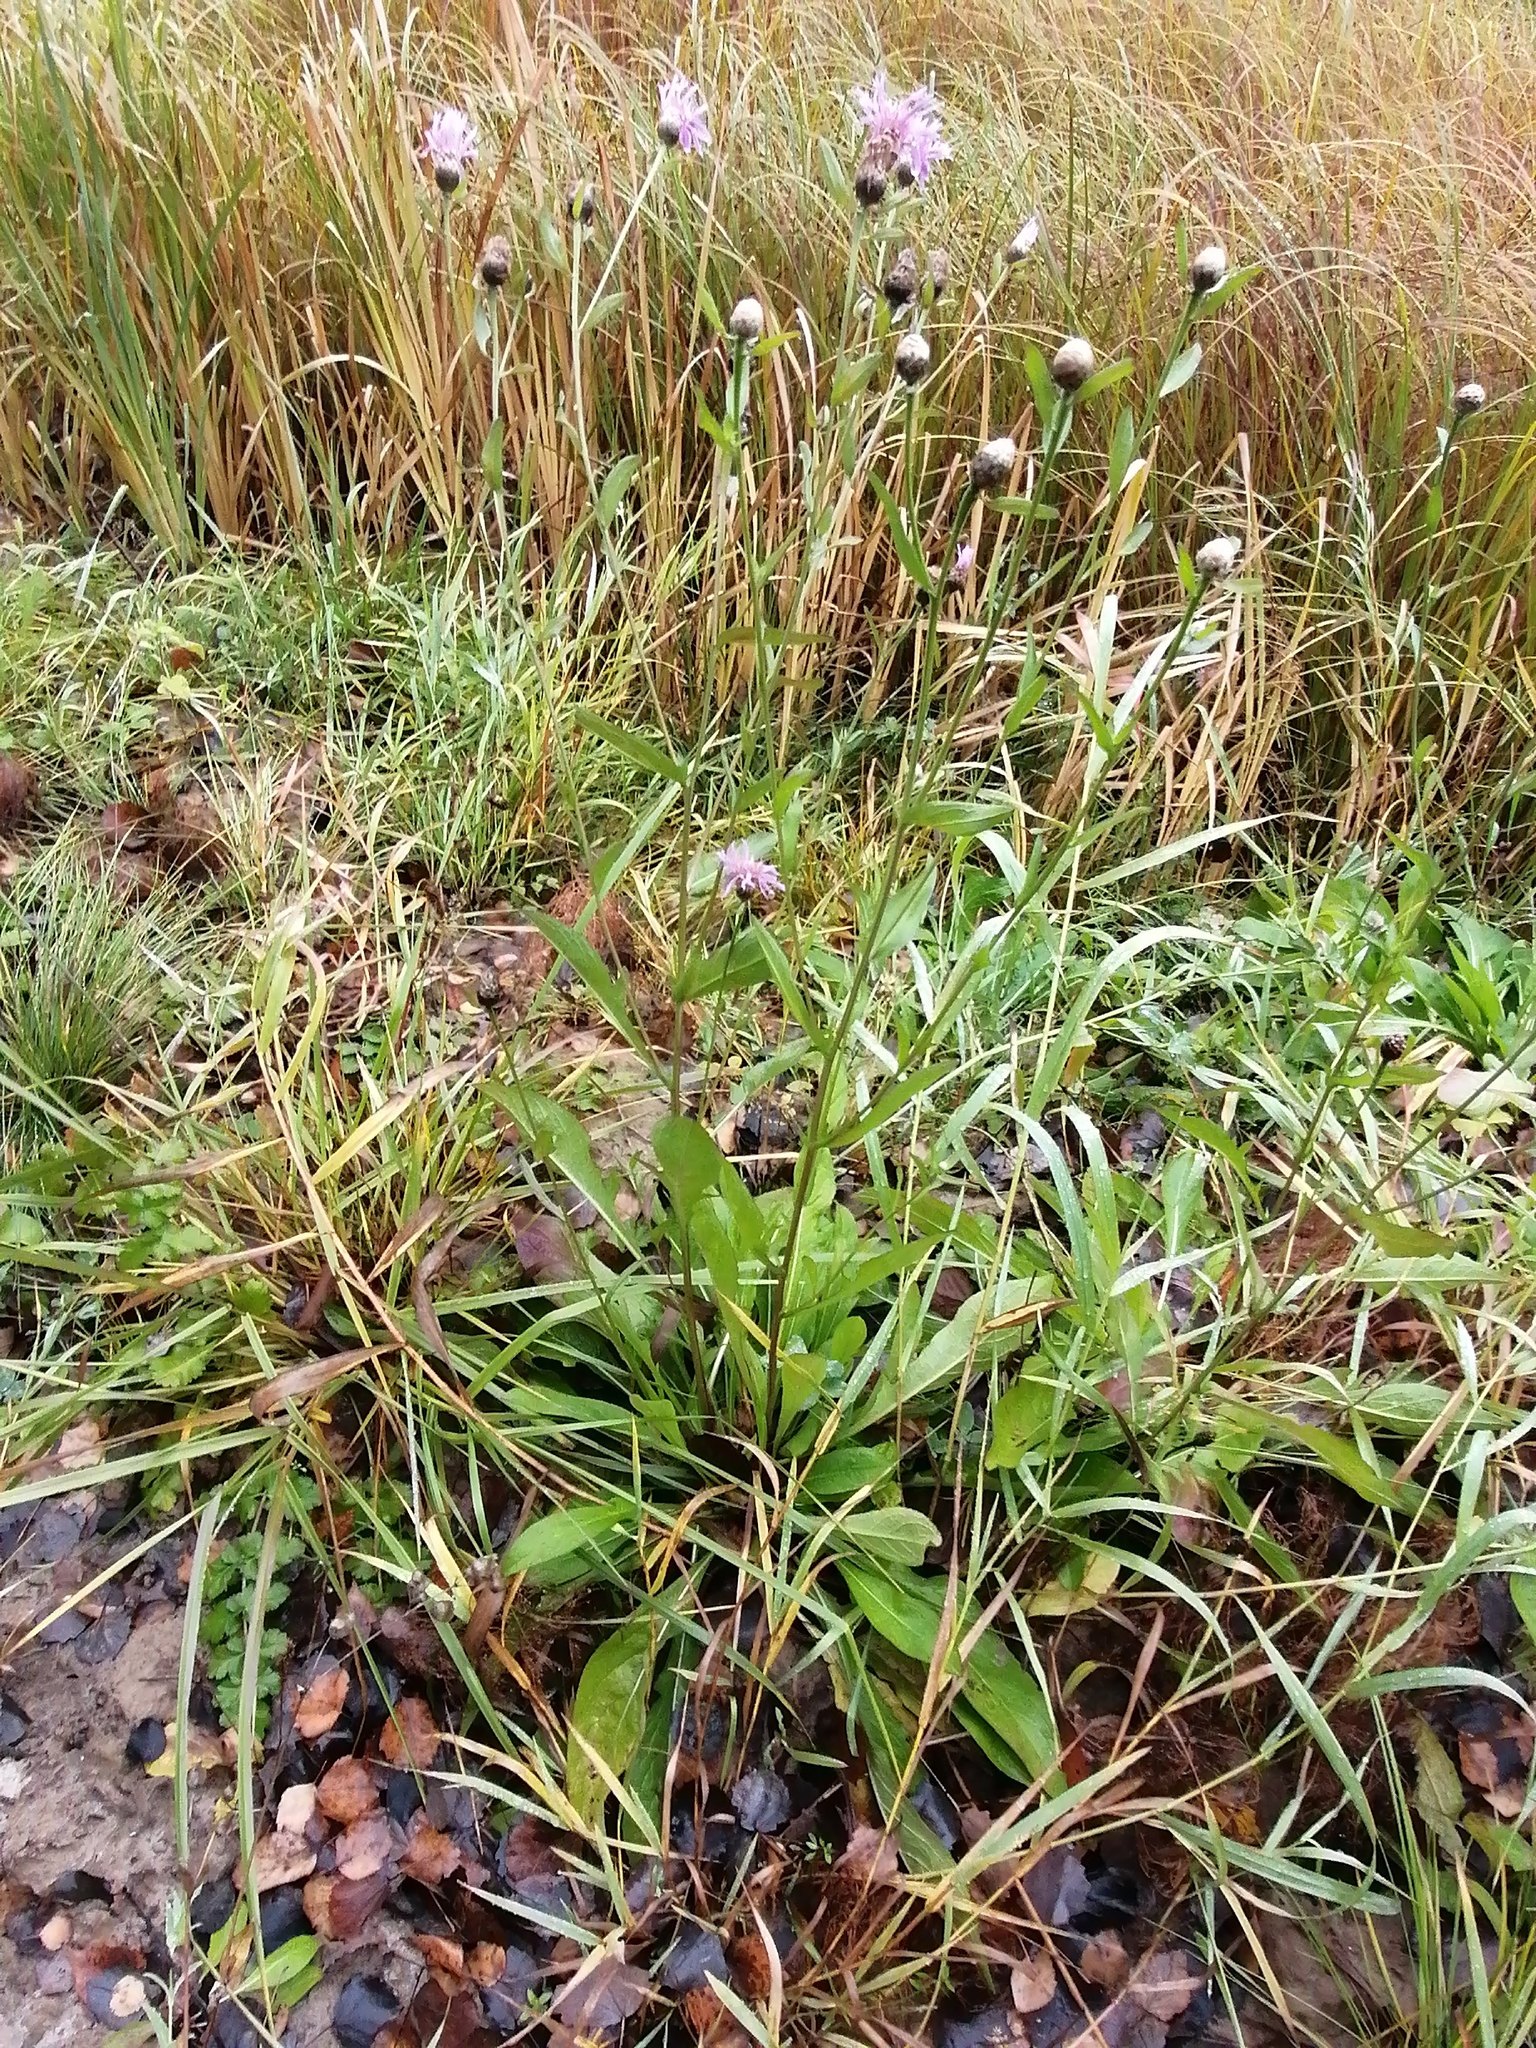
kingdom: Plantae
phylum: Tracheophyta
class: Magnoliopsida
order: Asterales
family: Asteraceae
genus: Centaurea
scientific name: Centaurea jacea
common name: Brown knapweed
